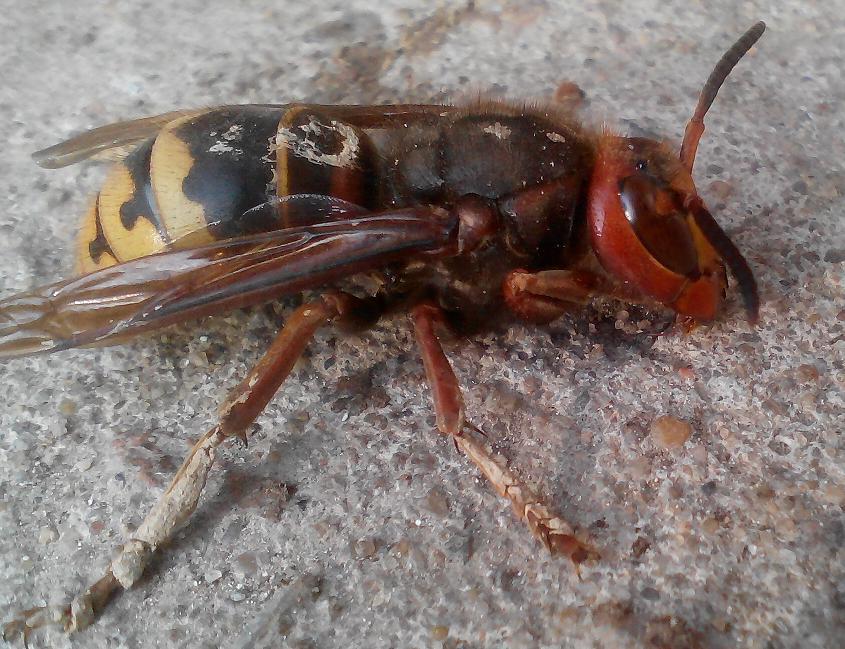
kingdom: Animalia
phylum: Arthropoda
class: Insecta
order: Hymenoptera
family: Vespidae
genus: Vespa
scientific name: Vespa crabro
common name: Hornet
